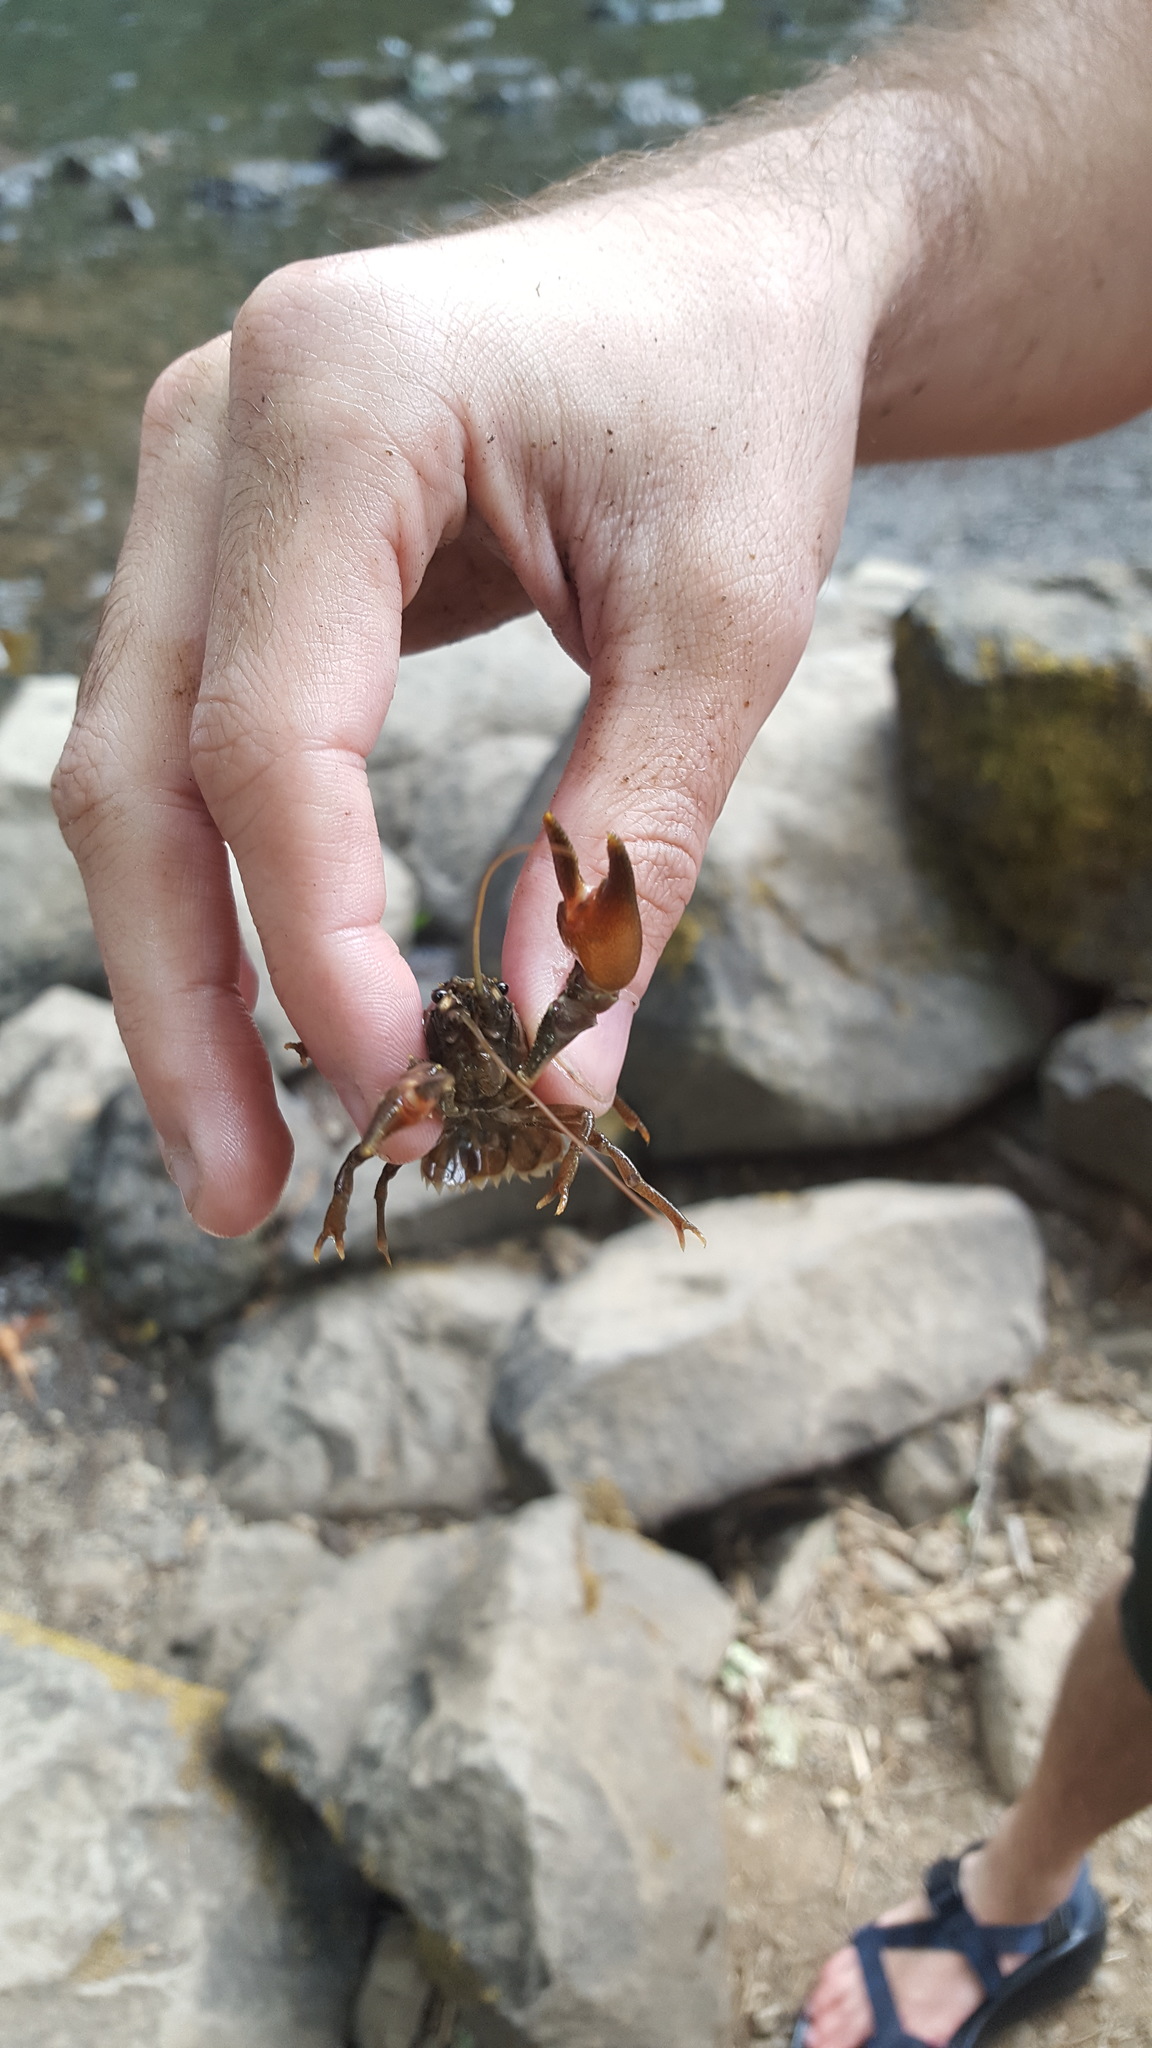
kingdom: Animalia
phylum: Arthropoda
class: Malacostraca
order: Decapoda
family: Astacidae
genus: Pacifastacus
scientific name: Pacifastacus leniusculus
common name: Signal crayfish
